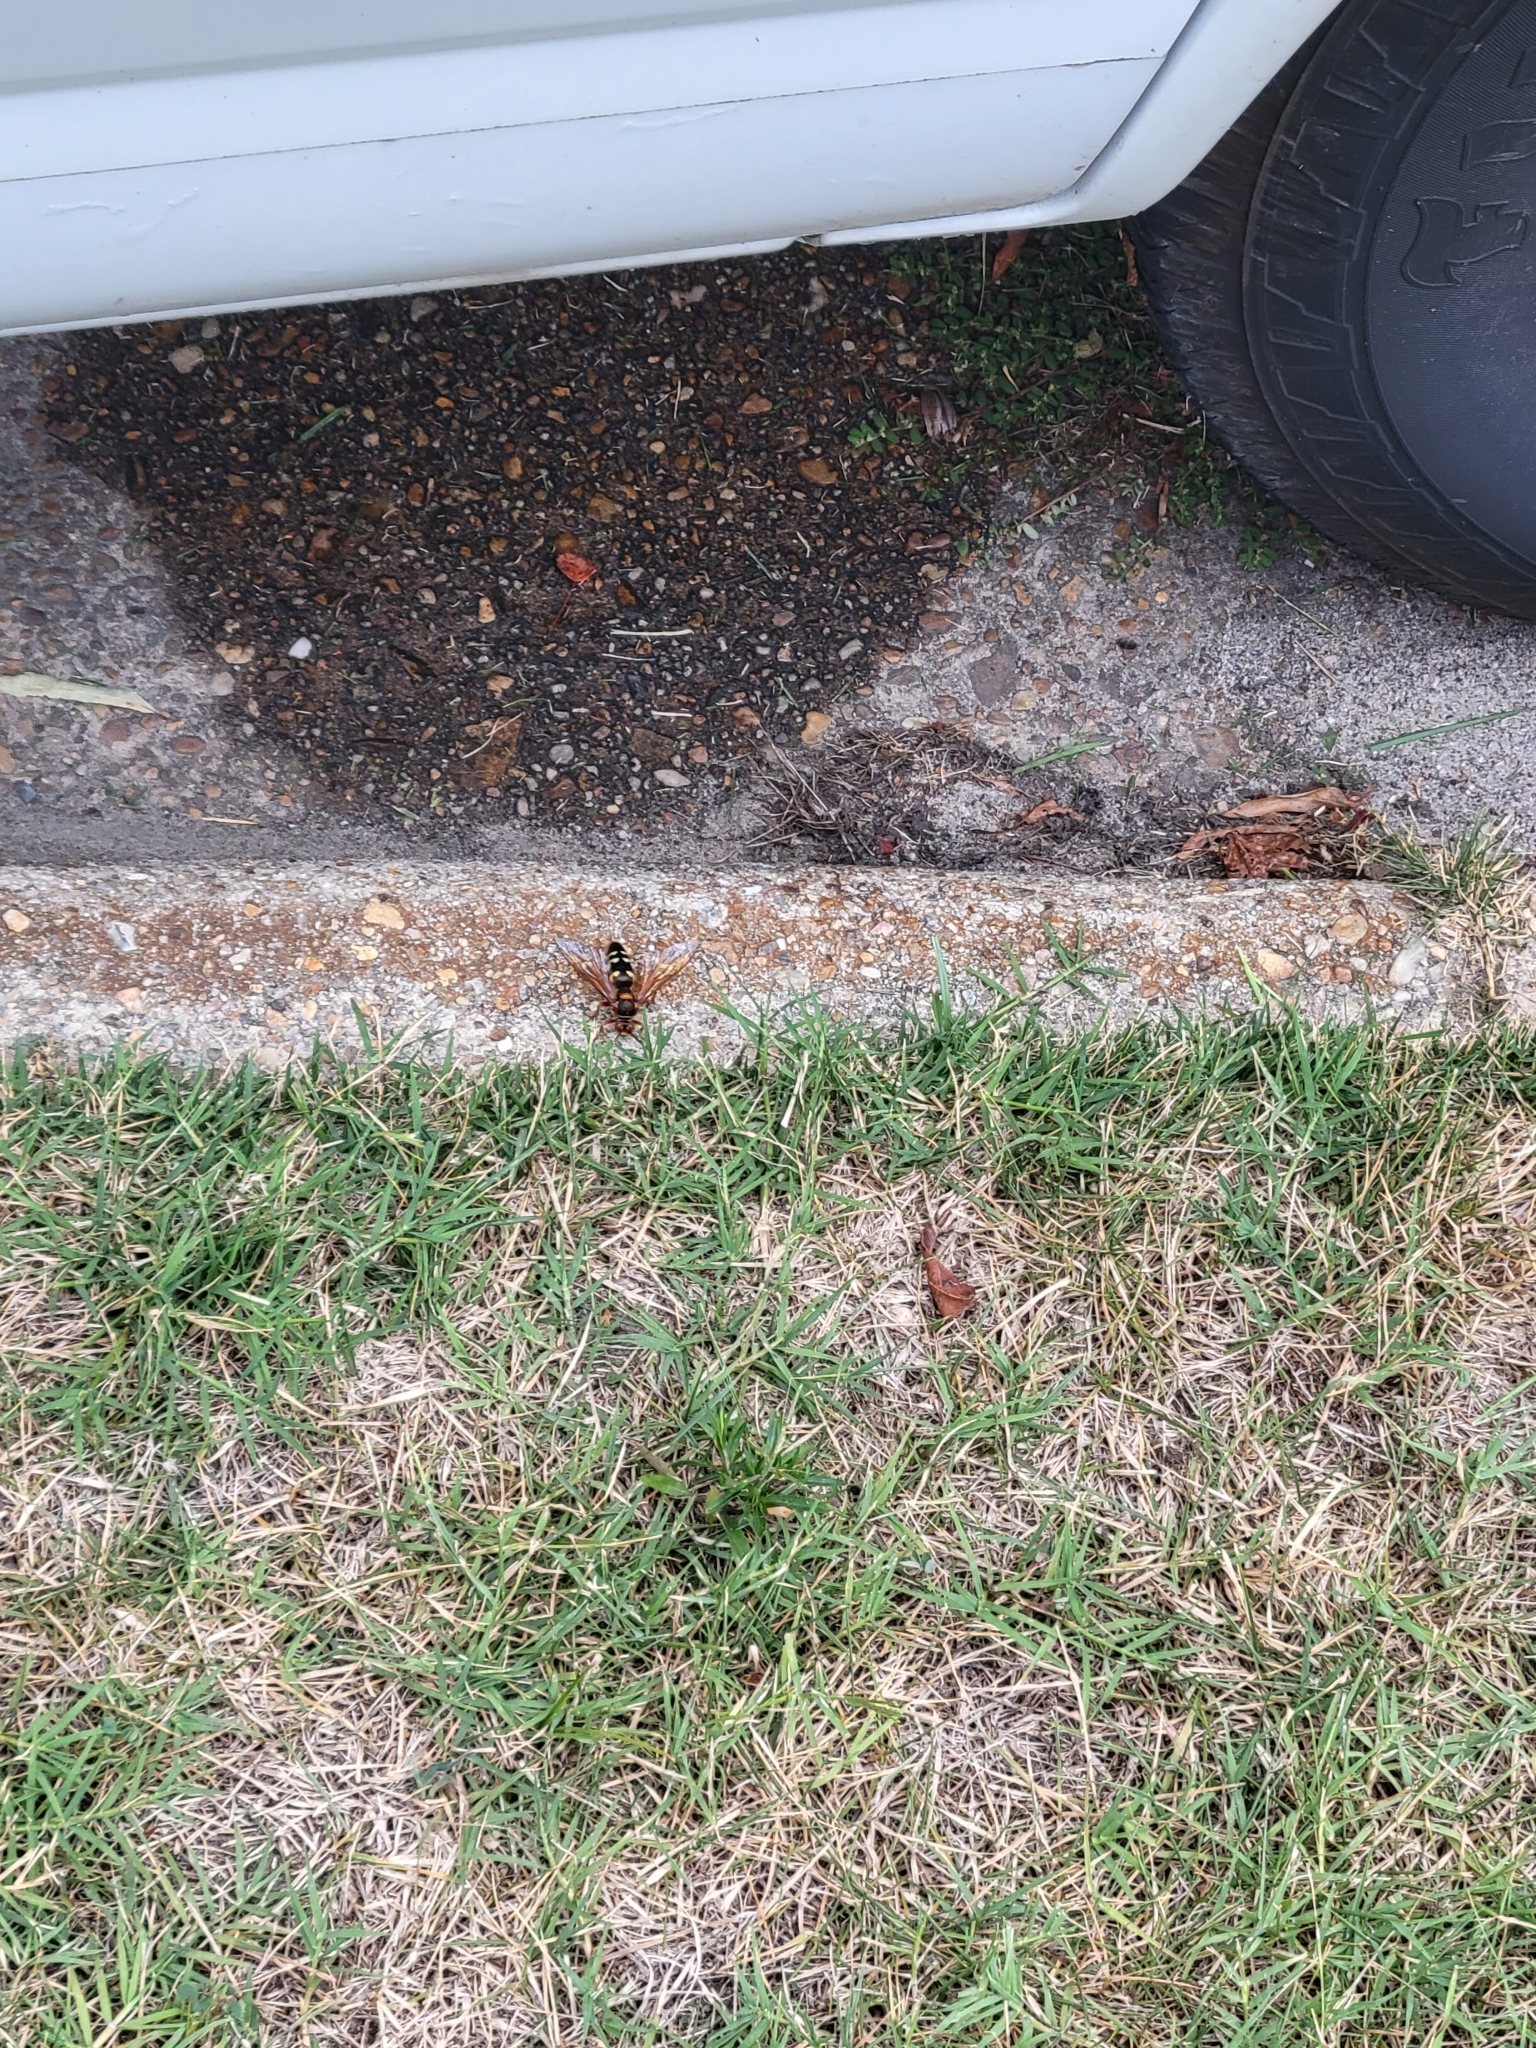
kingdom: Animalia
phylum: Arthropoda
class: Insecta
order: Hymenoptera
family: Crabronidae
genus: Sphecius
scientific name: Sphecius speciosus
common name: Cicada killer
